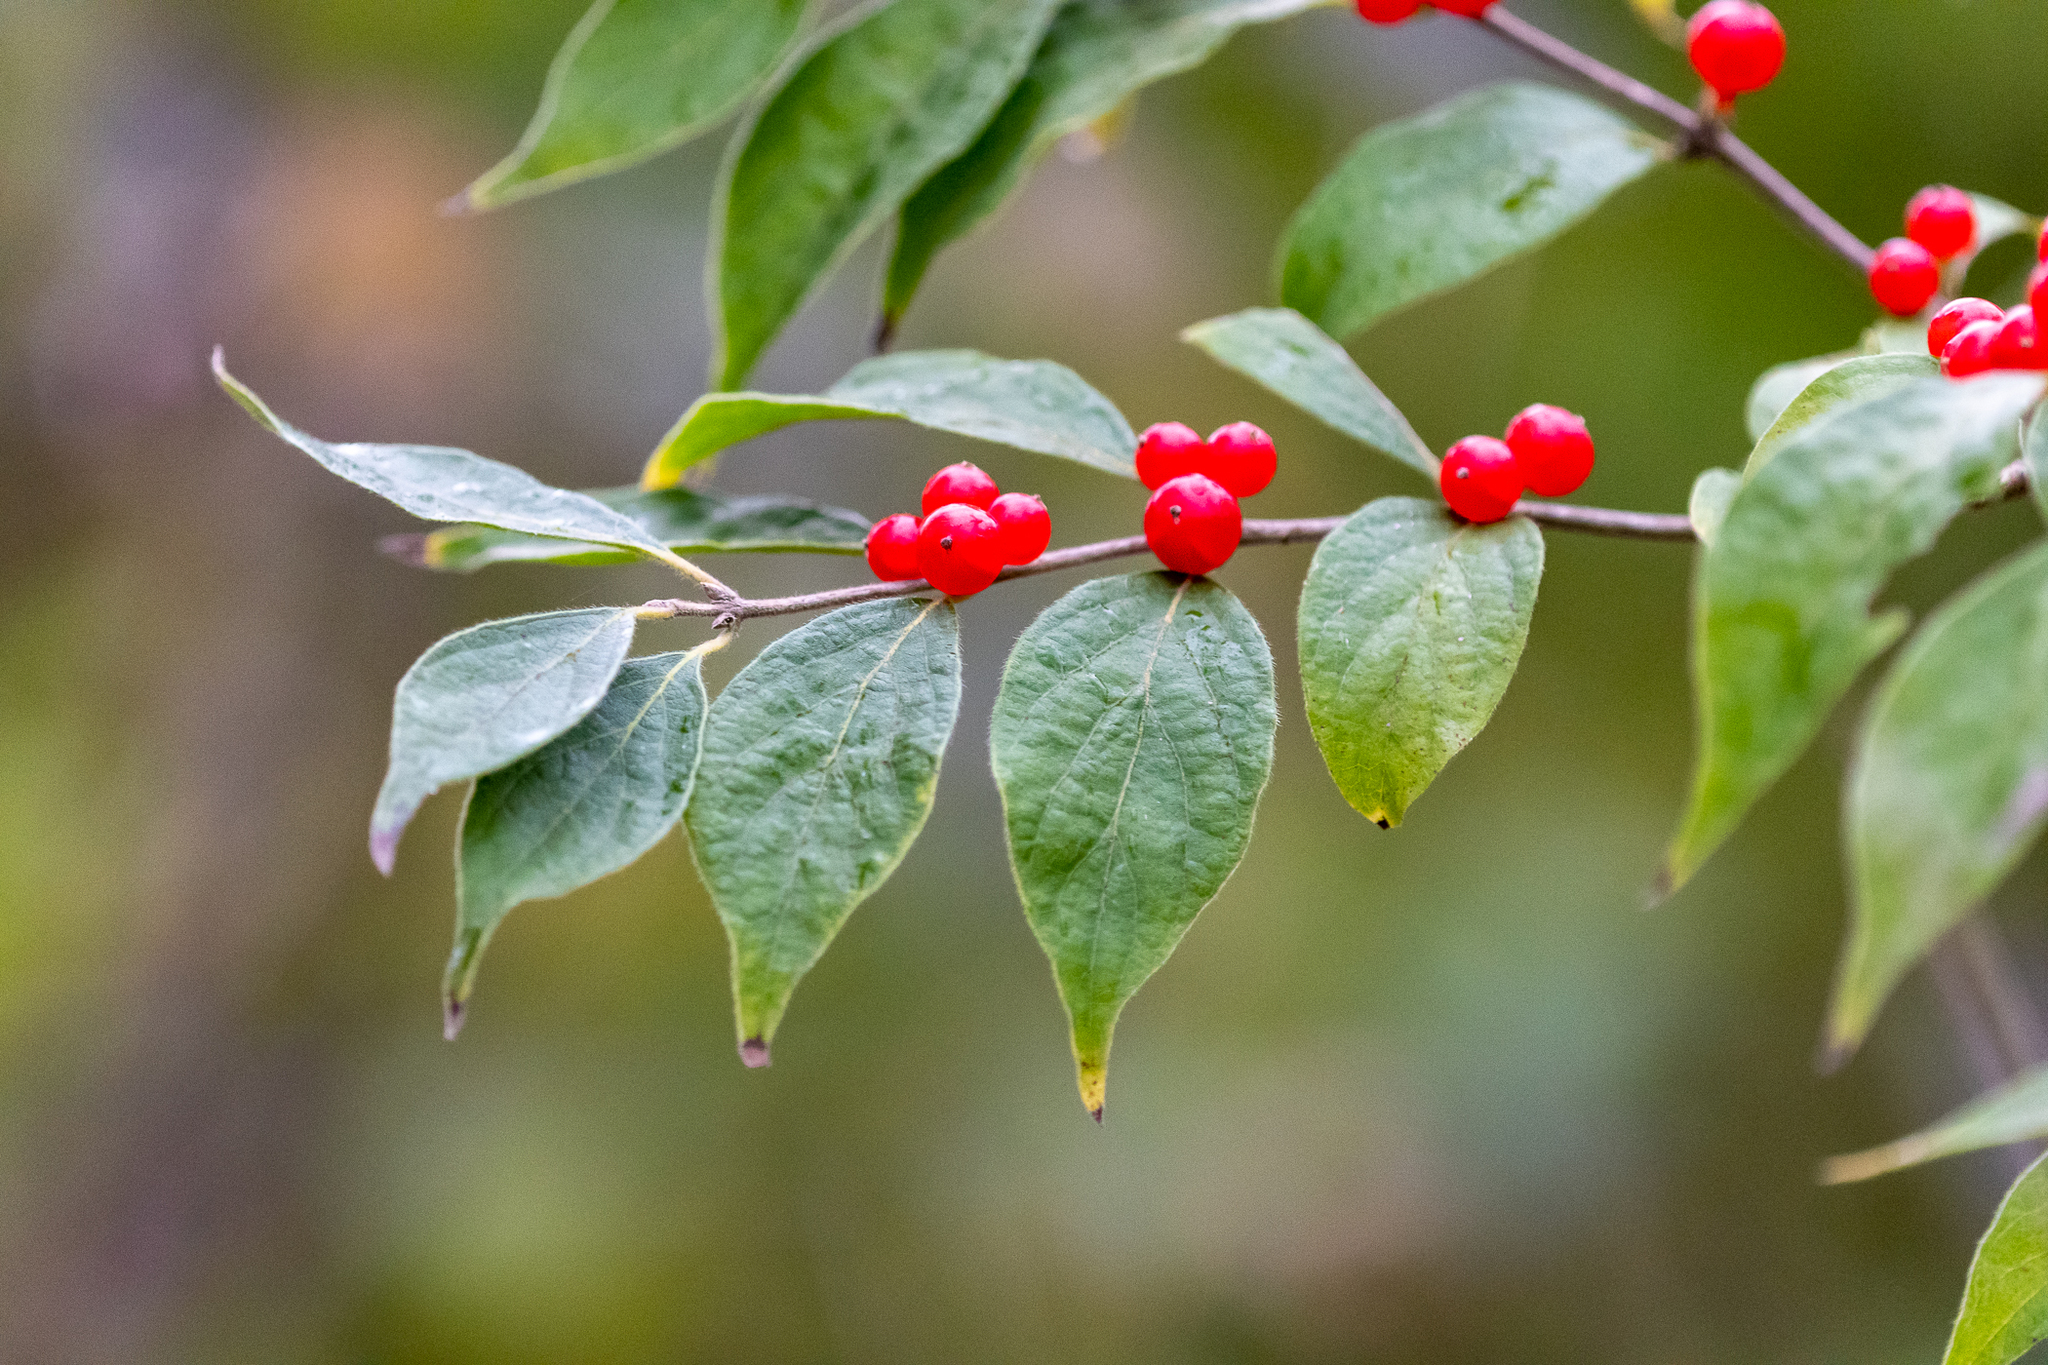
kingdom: Plantae
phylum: Tracheophyta
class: Magnoliopsida
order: Dipsacales
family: Caprifoliaceae
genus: Lonicera
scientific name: Lonicera maackii
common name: Amur honeysuckle
